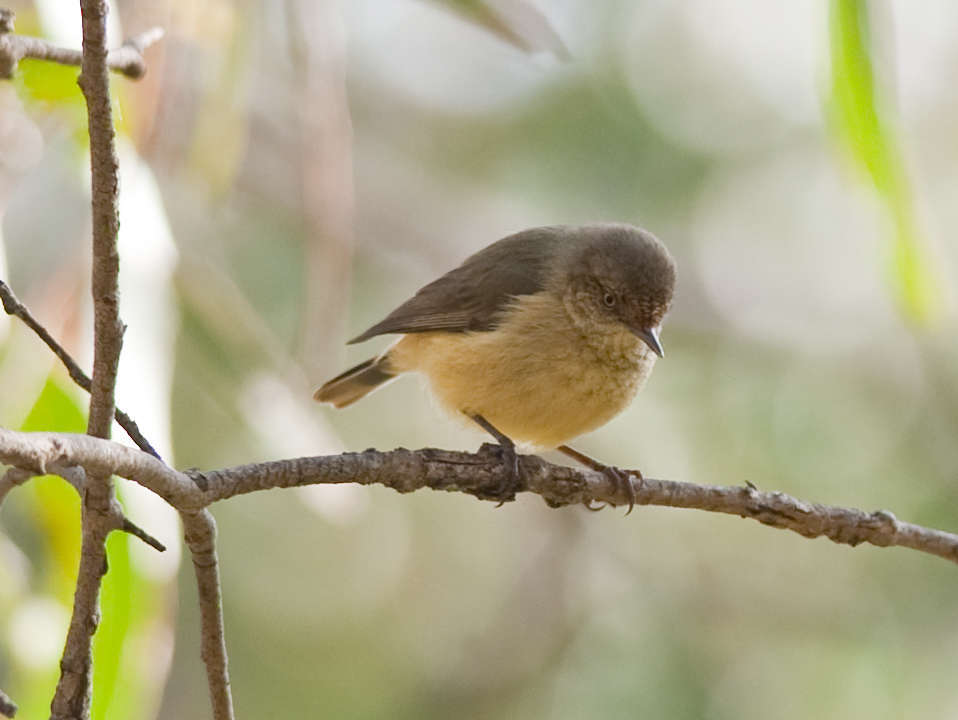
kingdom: Animalia
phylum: Chordata
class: Aves
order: Passeriformes
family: Acanthizidae
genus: Acanthiza
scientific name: Acanthiza reguloides
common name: Buff-rumped thornbill
